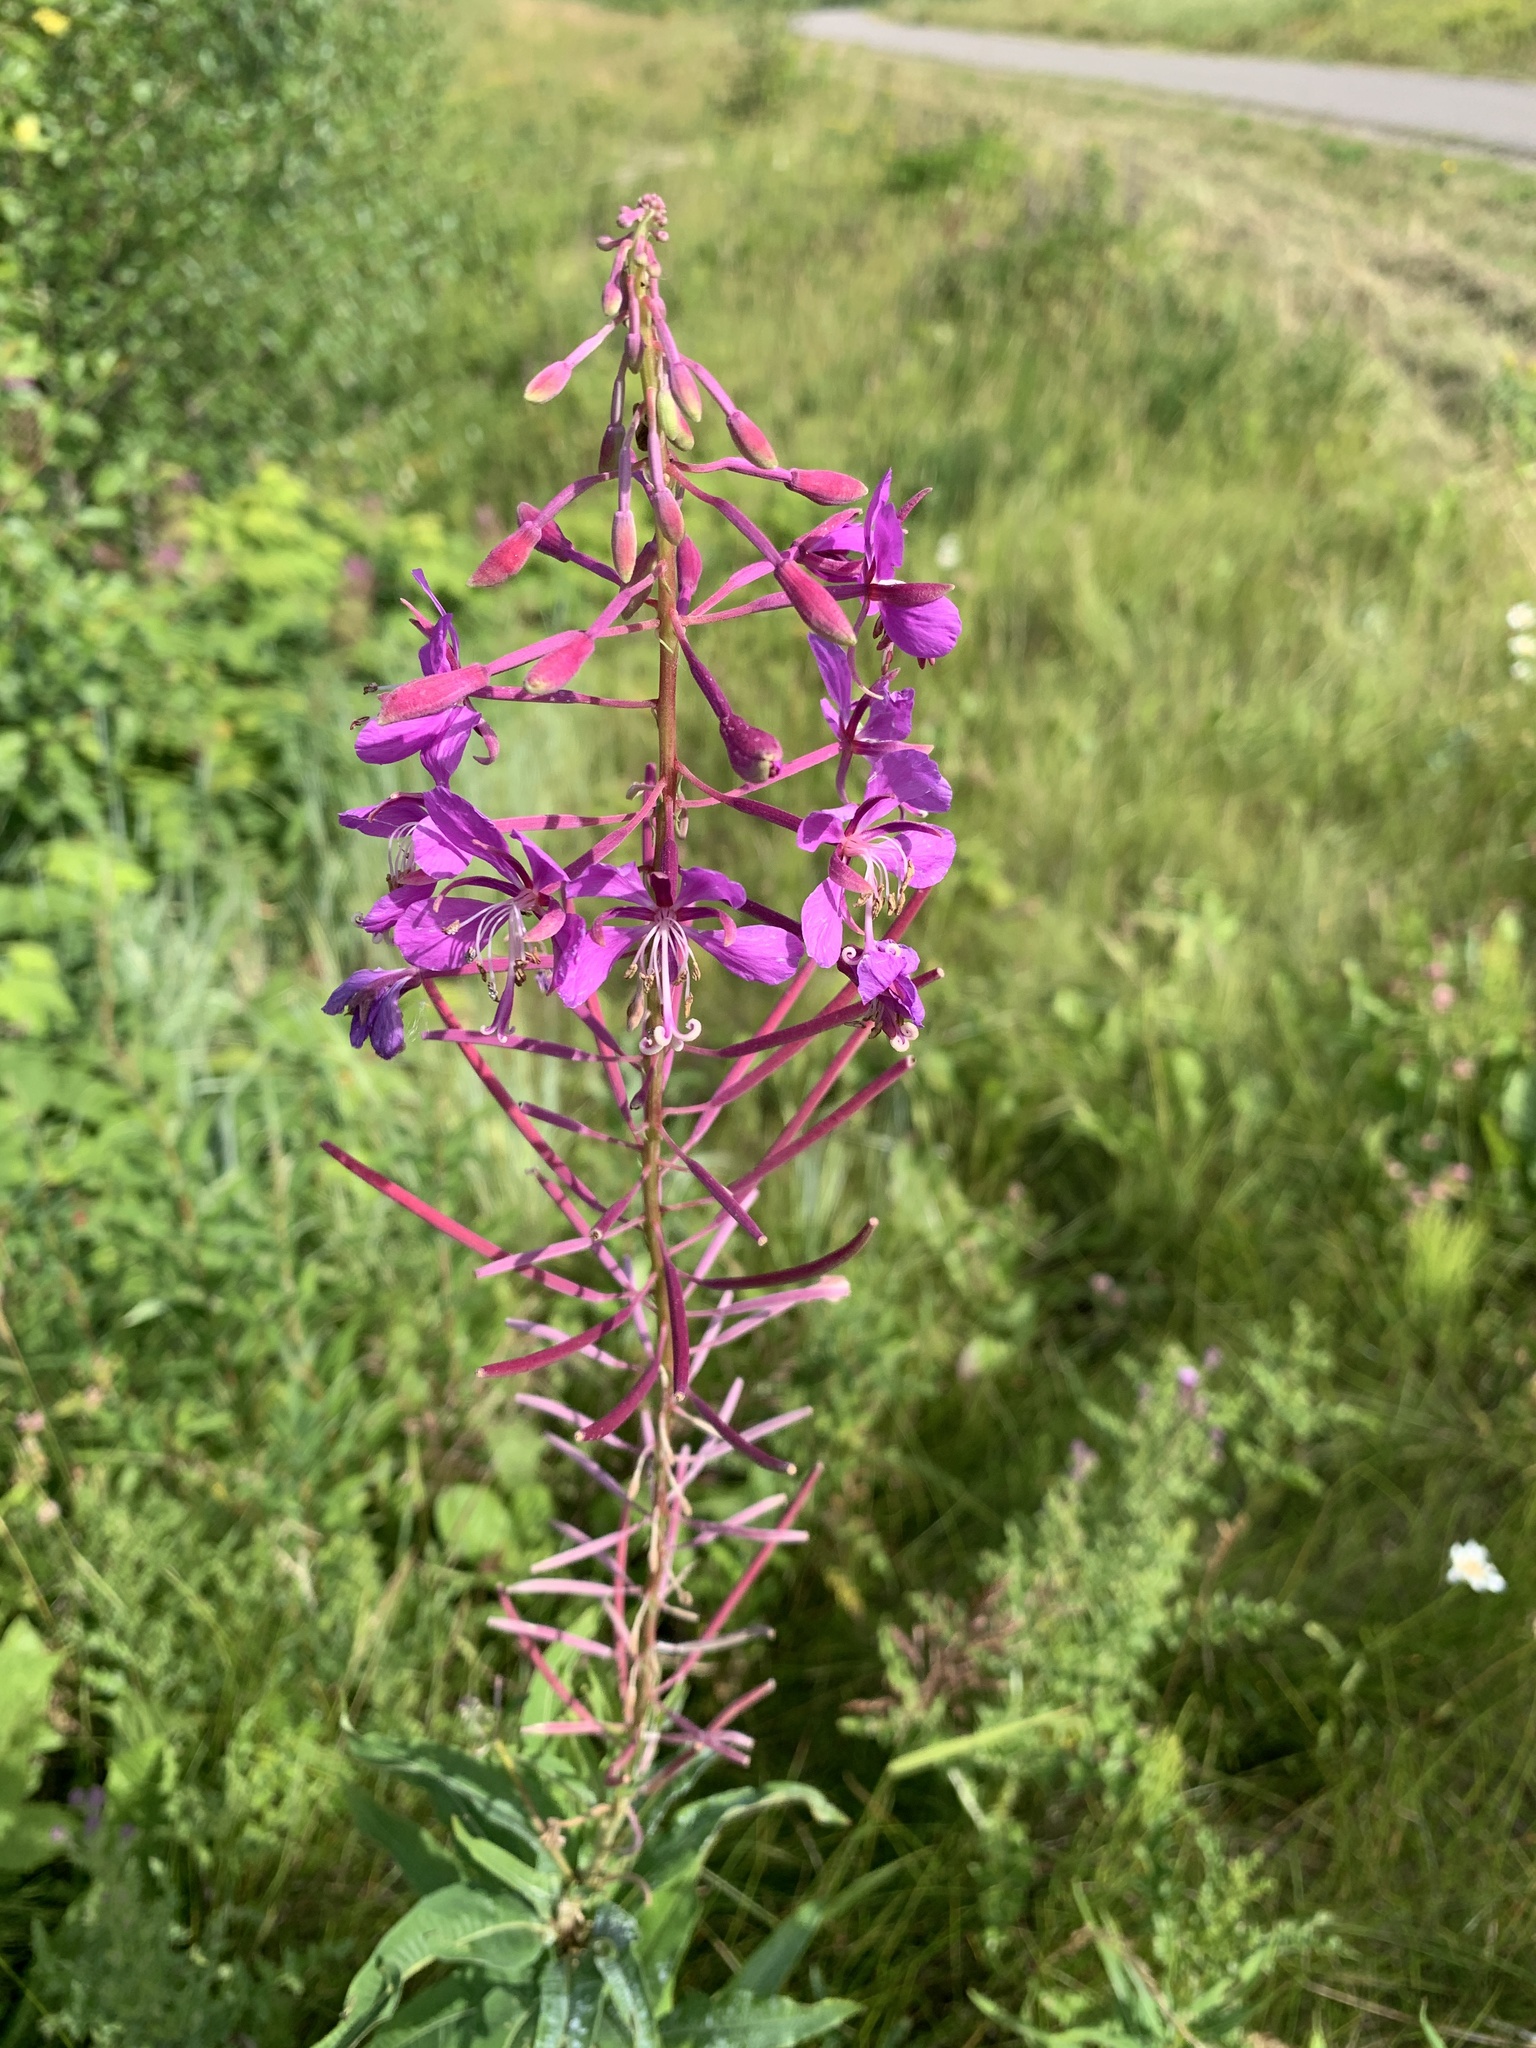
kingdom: Plantae
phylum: Tracheophyta
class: Magnoliopsida
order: Myrtales
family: Onagraceae
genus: Chamaenerion
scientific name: Chamaenerion angustifolium
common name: Fireweed
